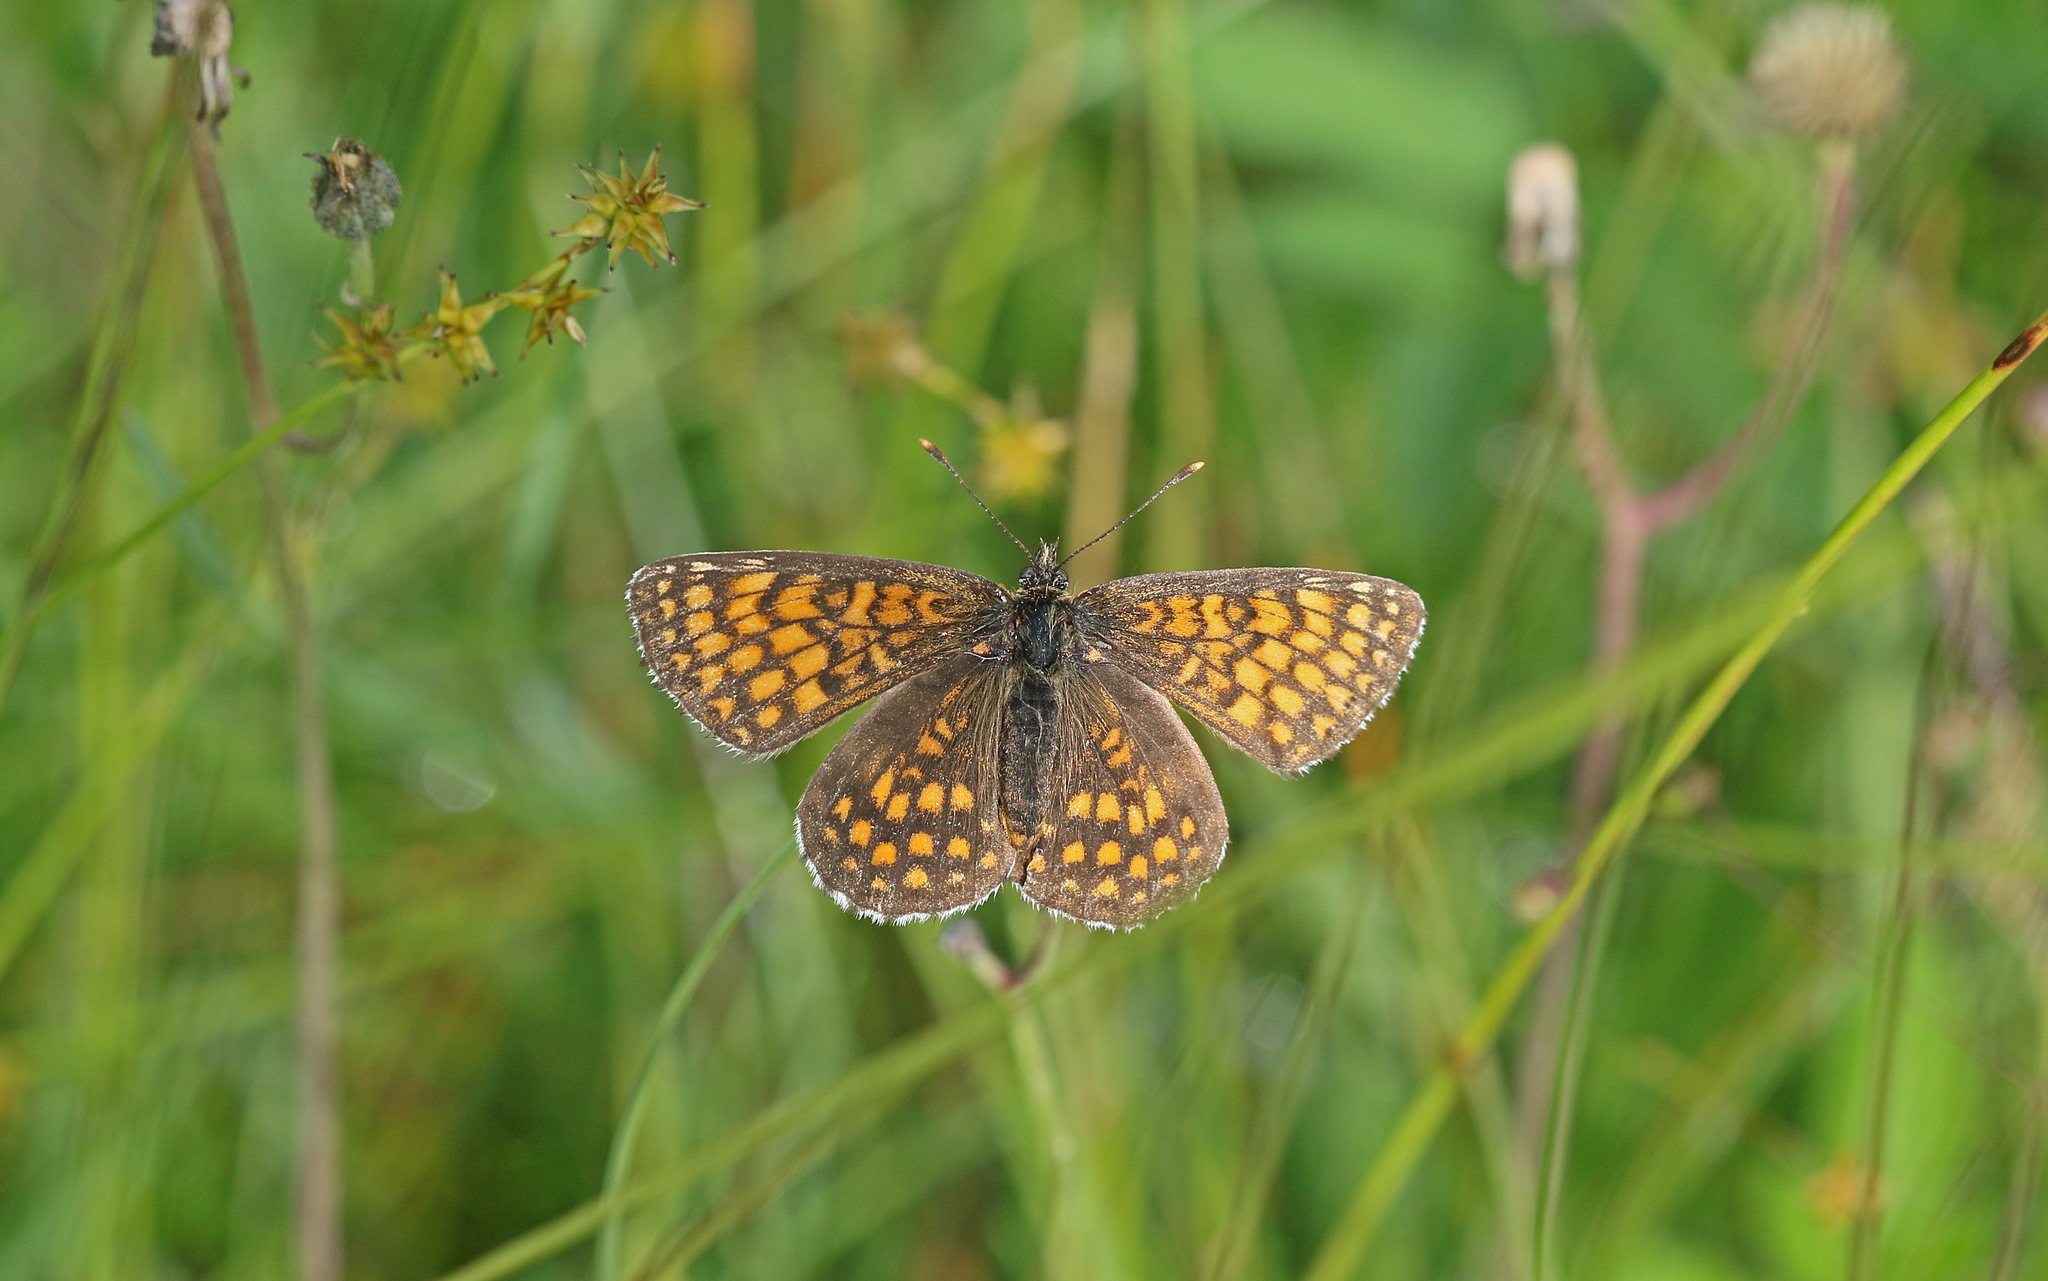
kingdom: Animalia
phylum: Arthropoda
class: Insecta
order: Lepidoptera
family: Nymphalidae
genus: Melitaea
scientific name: Melitaea athalia
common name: Heath fritillary
